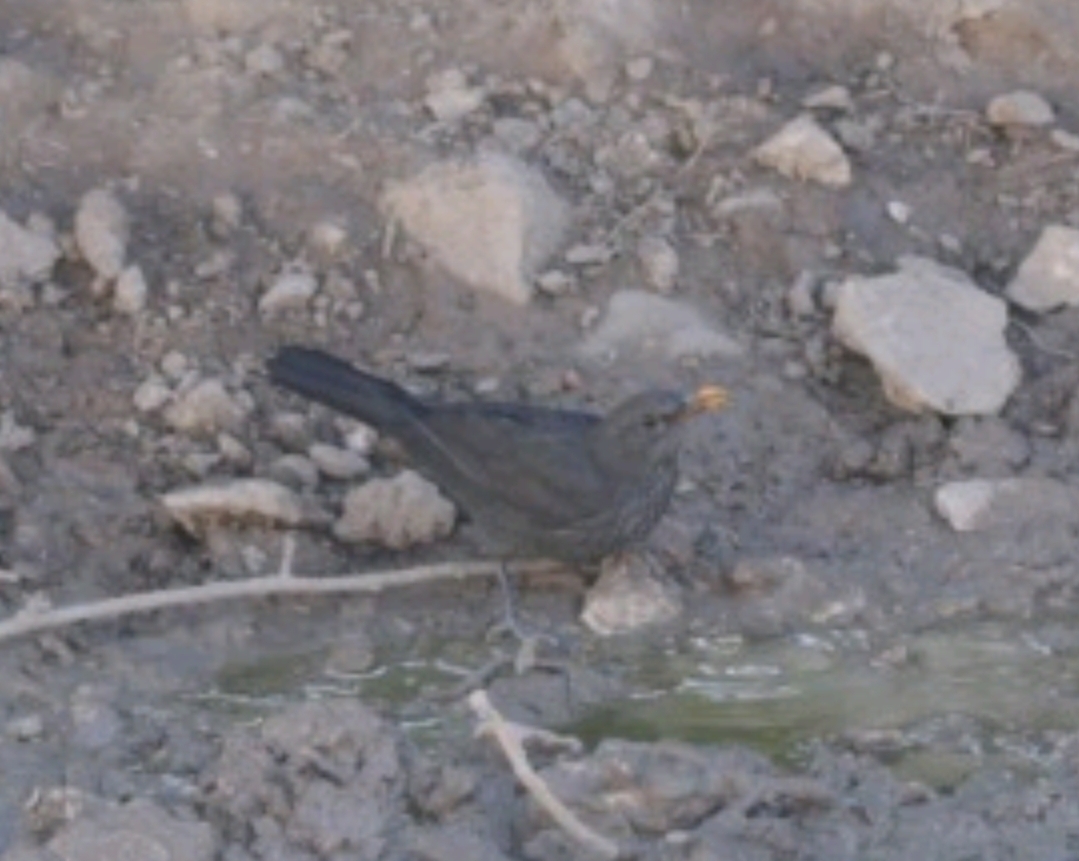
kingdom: Animalia
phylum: Chordata
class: Aves
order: Passeriformes
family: Turdidae
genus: Turdus
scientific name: Turdus merula
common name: Common blackbird
